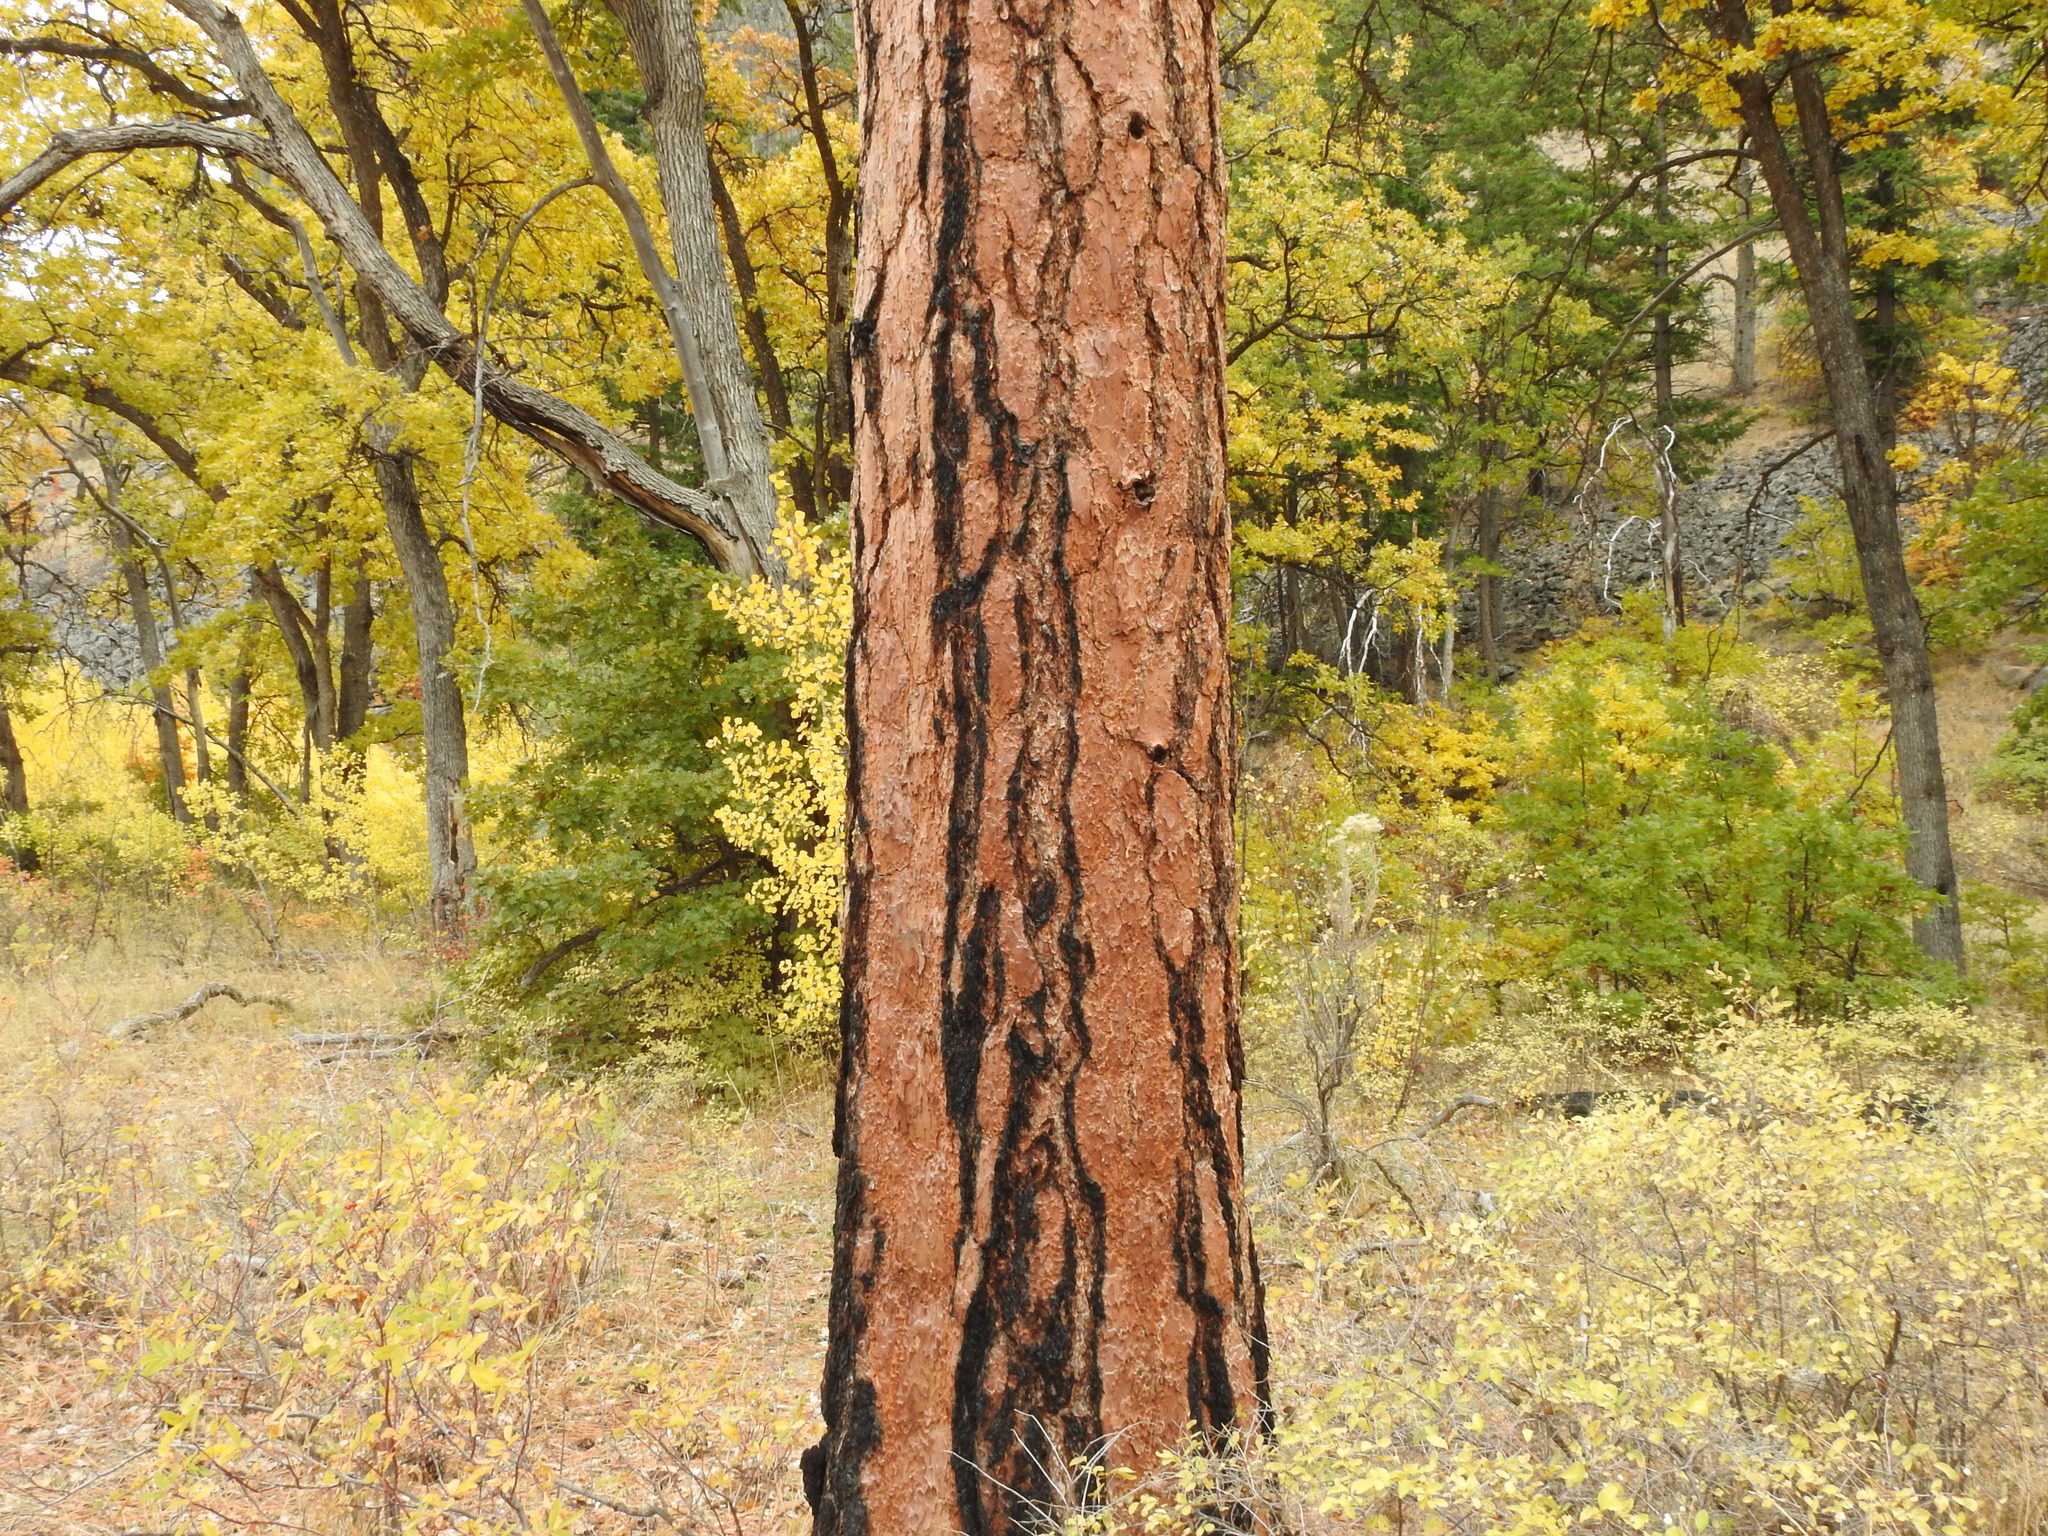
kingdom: Plantae
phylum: Tracheophyta
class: Pinopsida
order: Pinales
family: Pinaceae
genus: Pinus
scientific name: Pinus ponderosa
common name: Western yellow-pine
